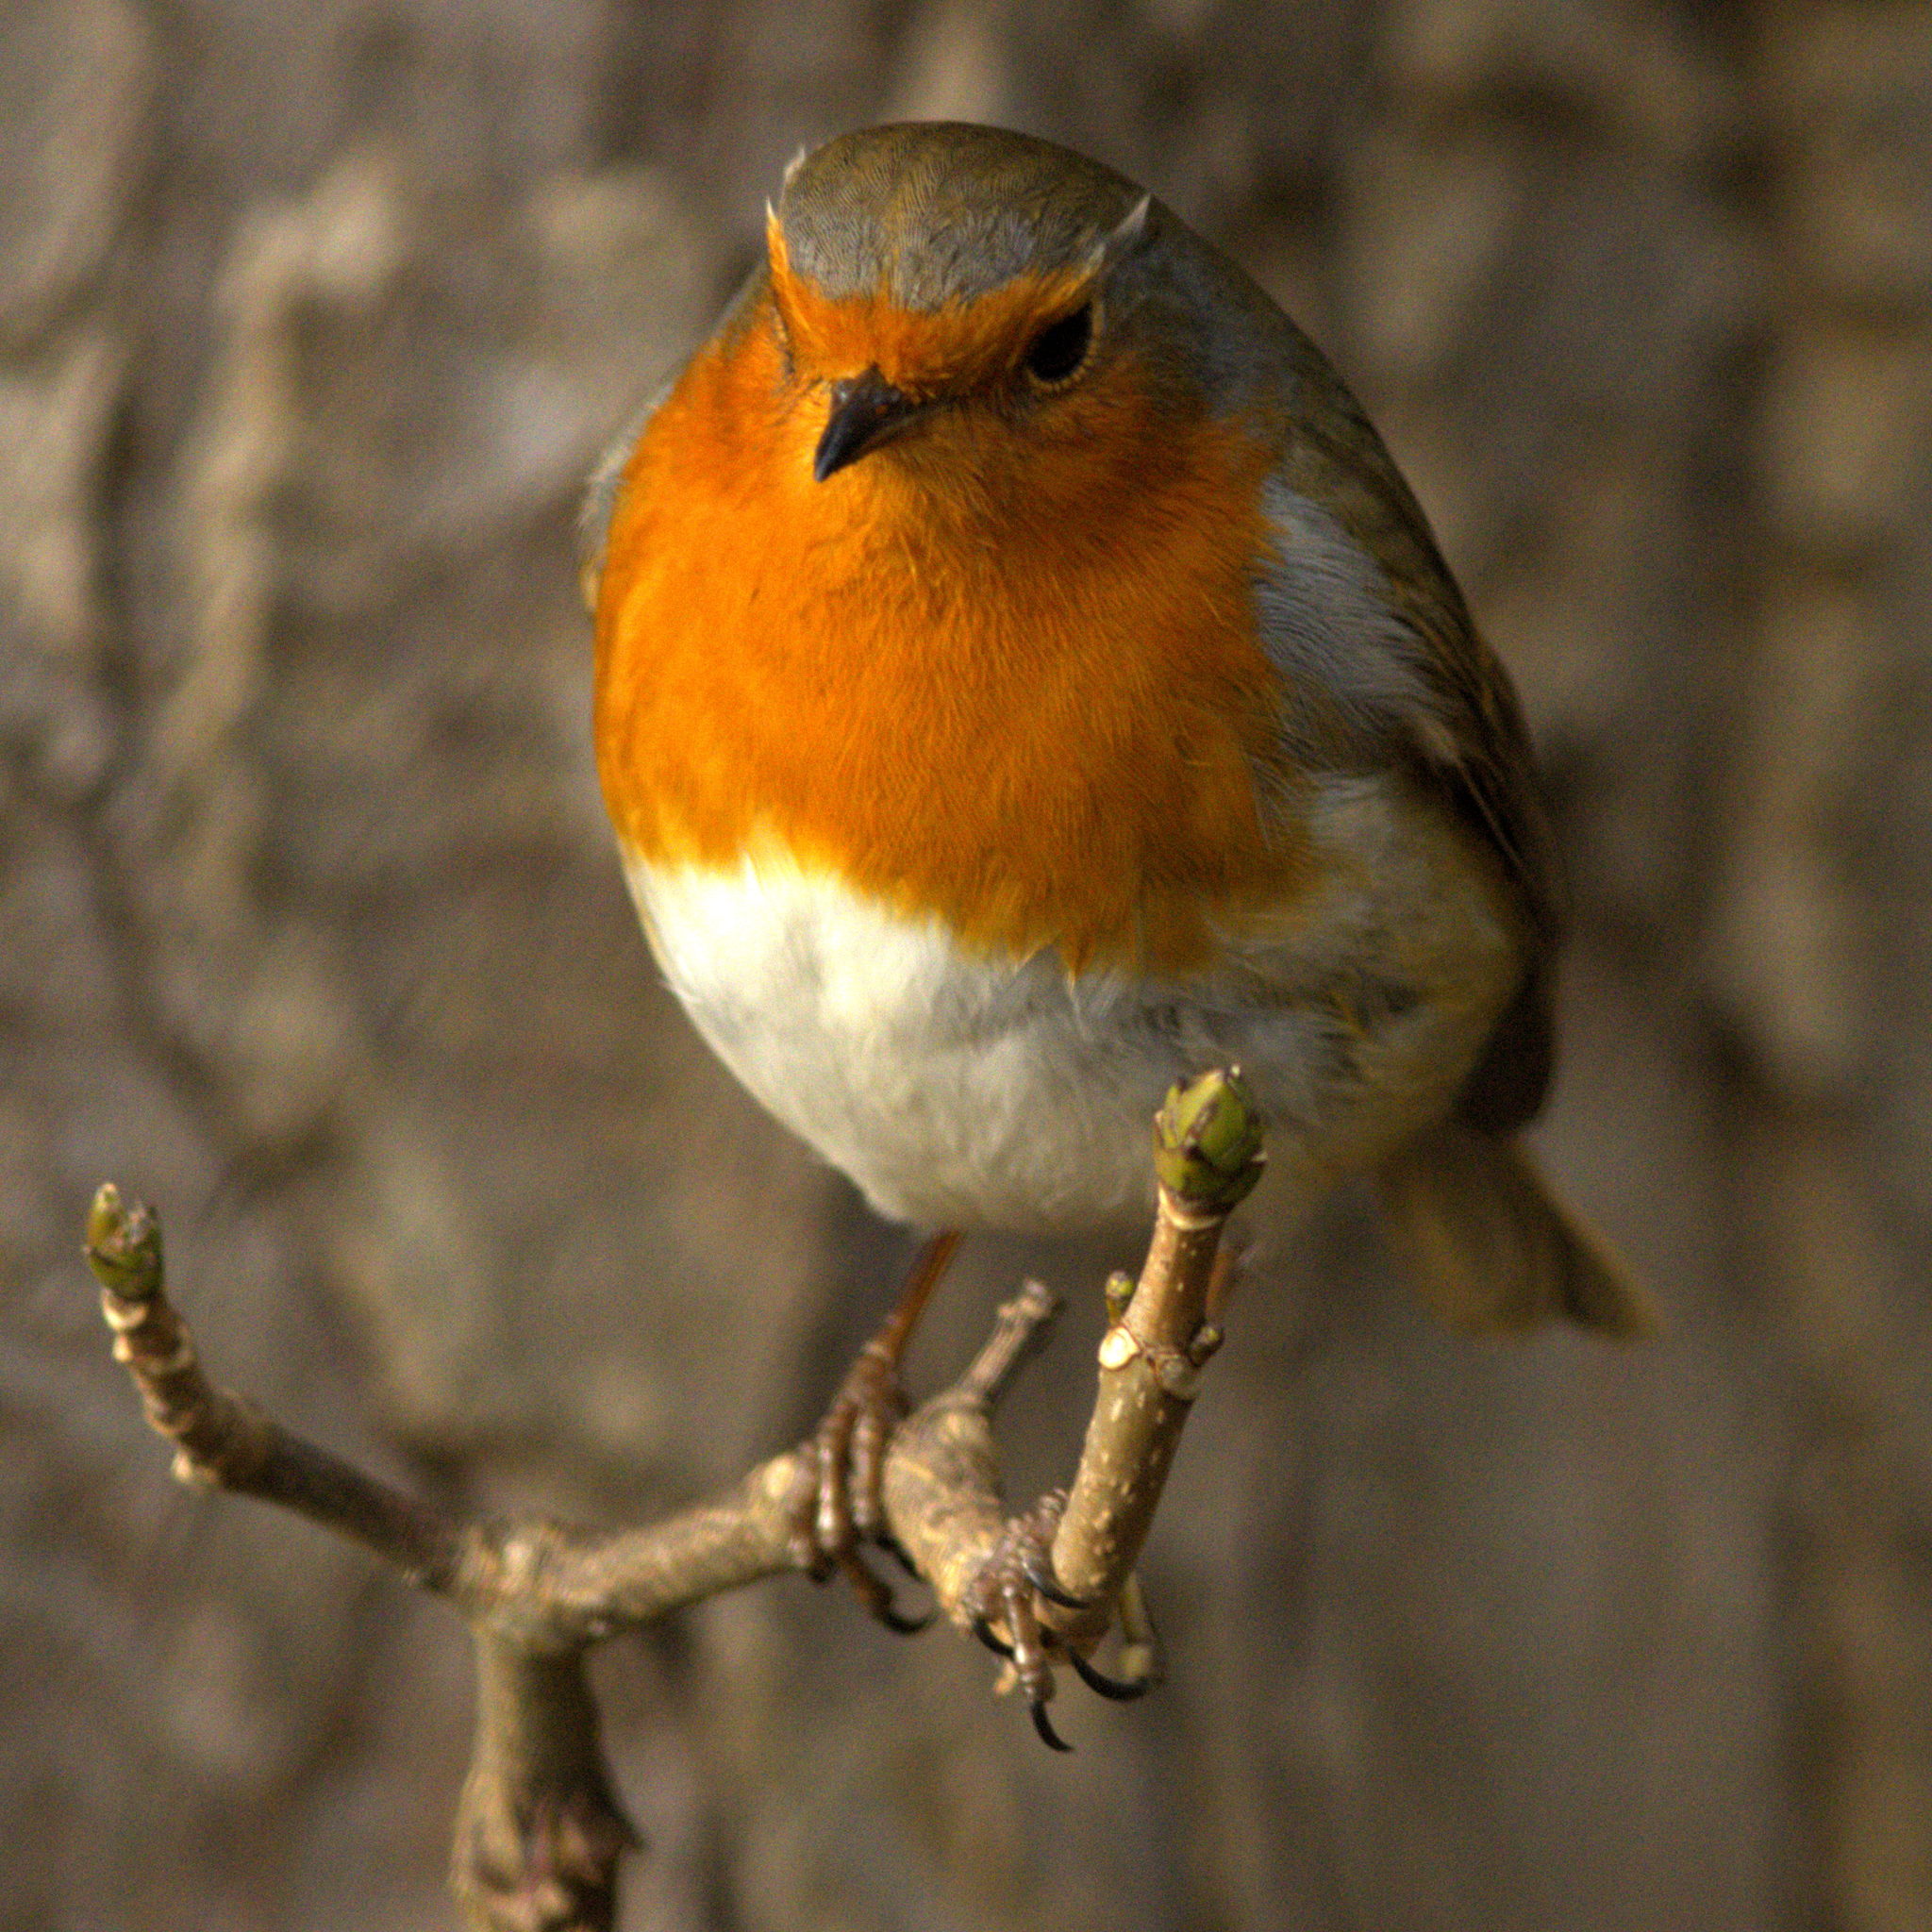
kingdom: Animalia
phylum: Chordata
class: Aves
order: Passeriformes
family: Muscicapidae
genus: Erithacus
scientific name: Erithacus rubecula
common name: European robin
